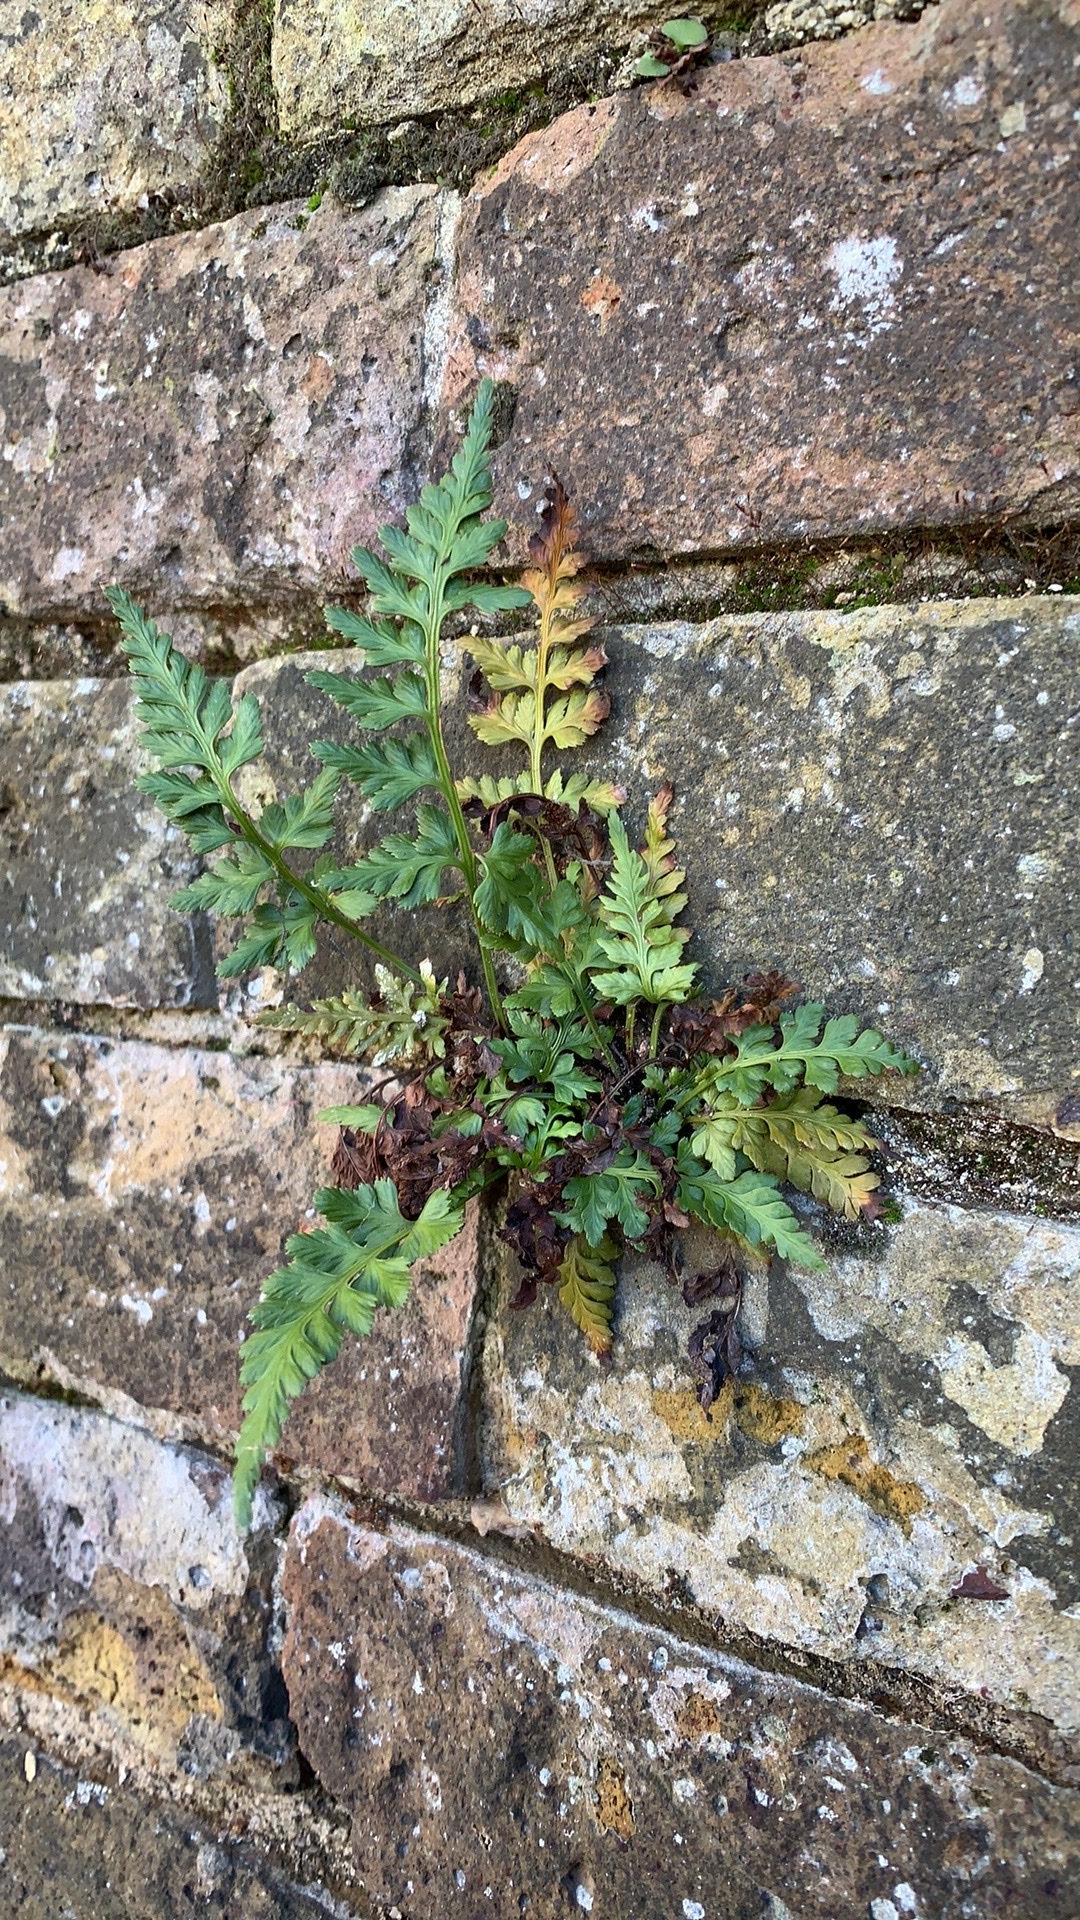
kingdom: Plantae
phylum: Tracheophyta
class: Polypodiopsida
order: Polypodiales
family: Aspleniaceae
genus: Asplenium
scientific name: Asplenium adiantum-nigrum
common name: Black spleenwort
